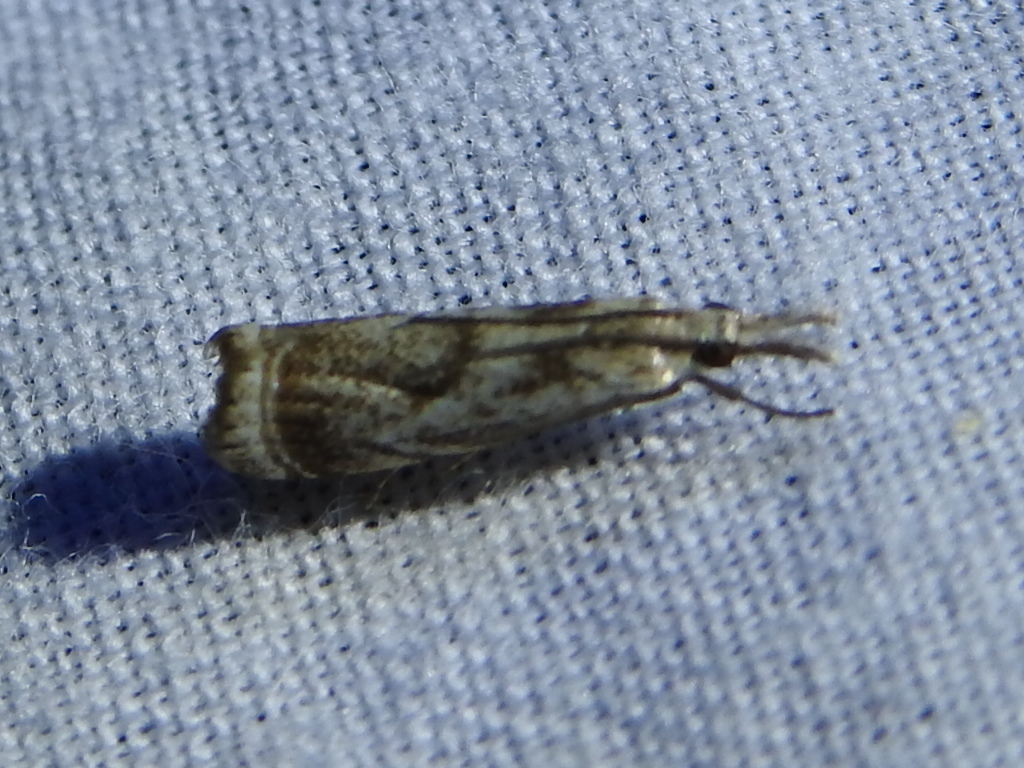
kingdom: Animalia
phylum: Arthropoda
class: Insecta
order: Lepidoptera
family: Crambidae
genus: Microcrambus
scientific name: Microcrambus elegans
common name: Elegant grass-veneer
